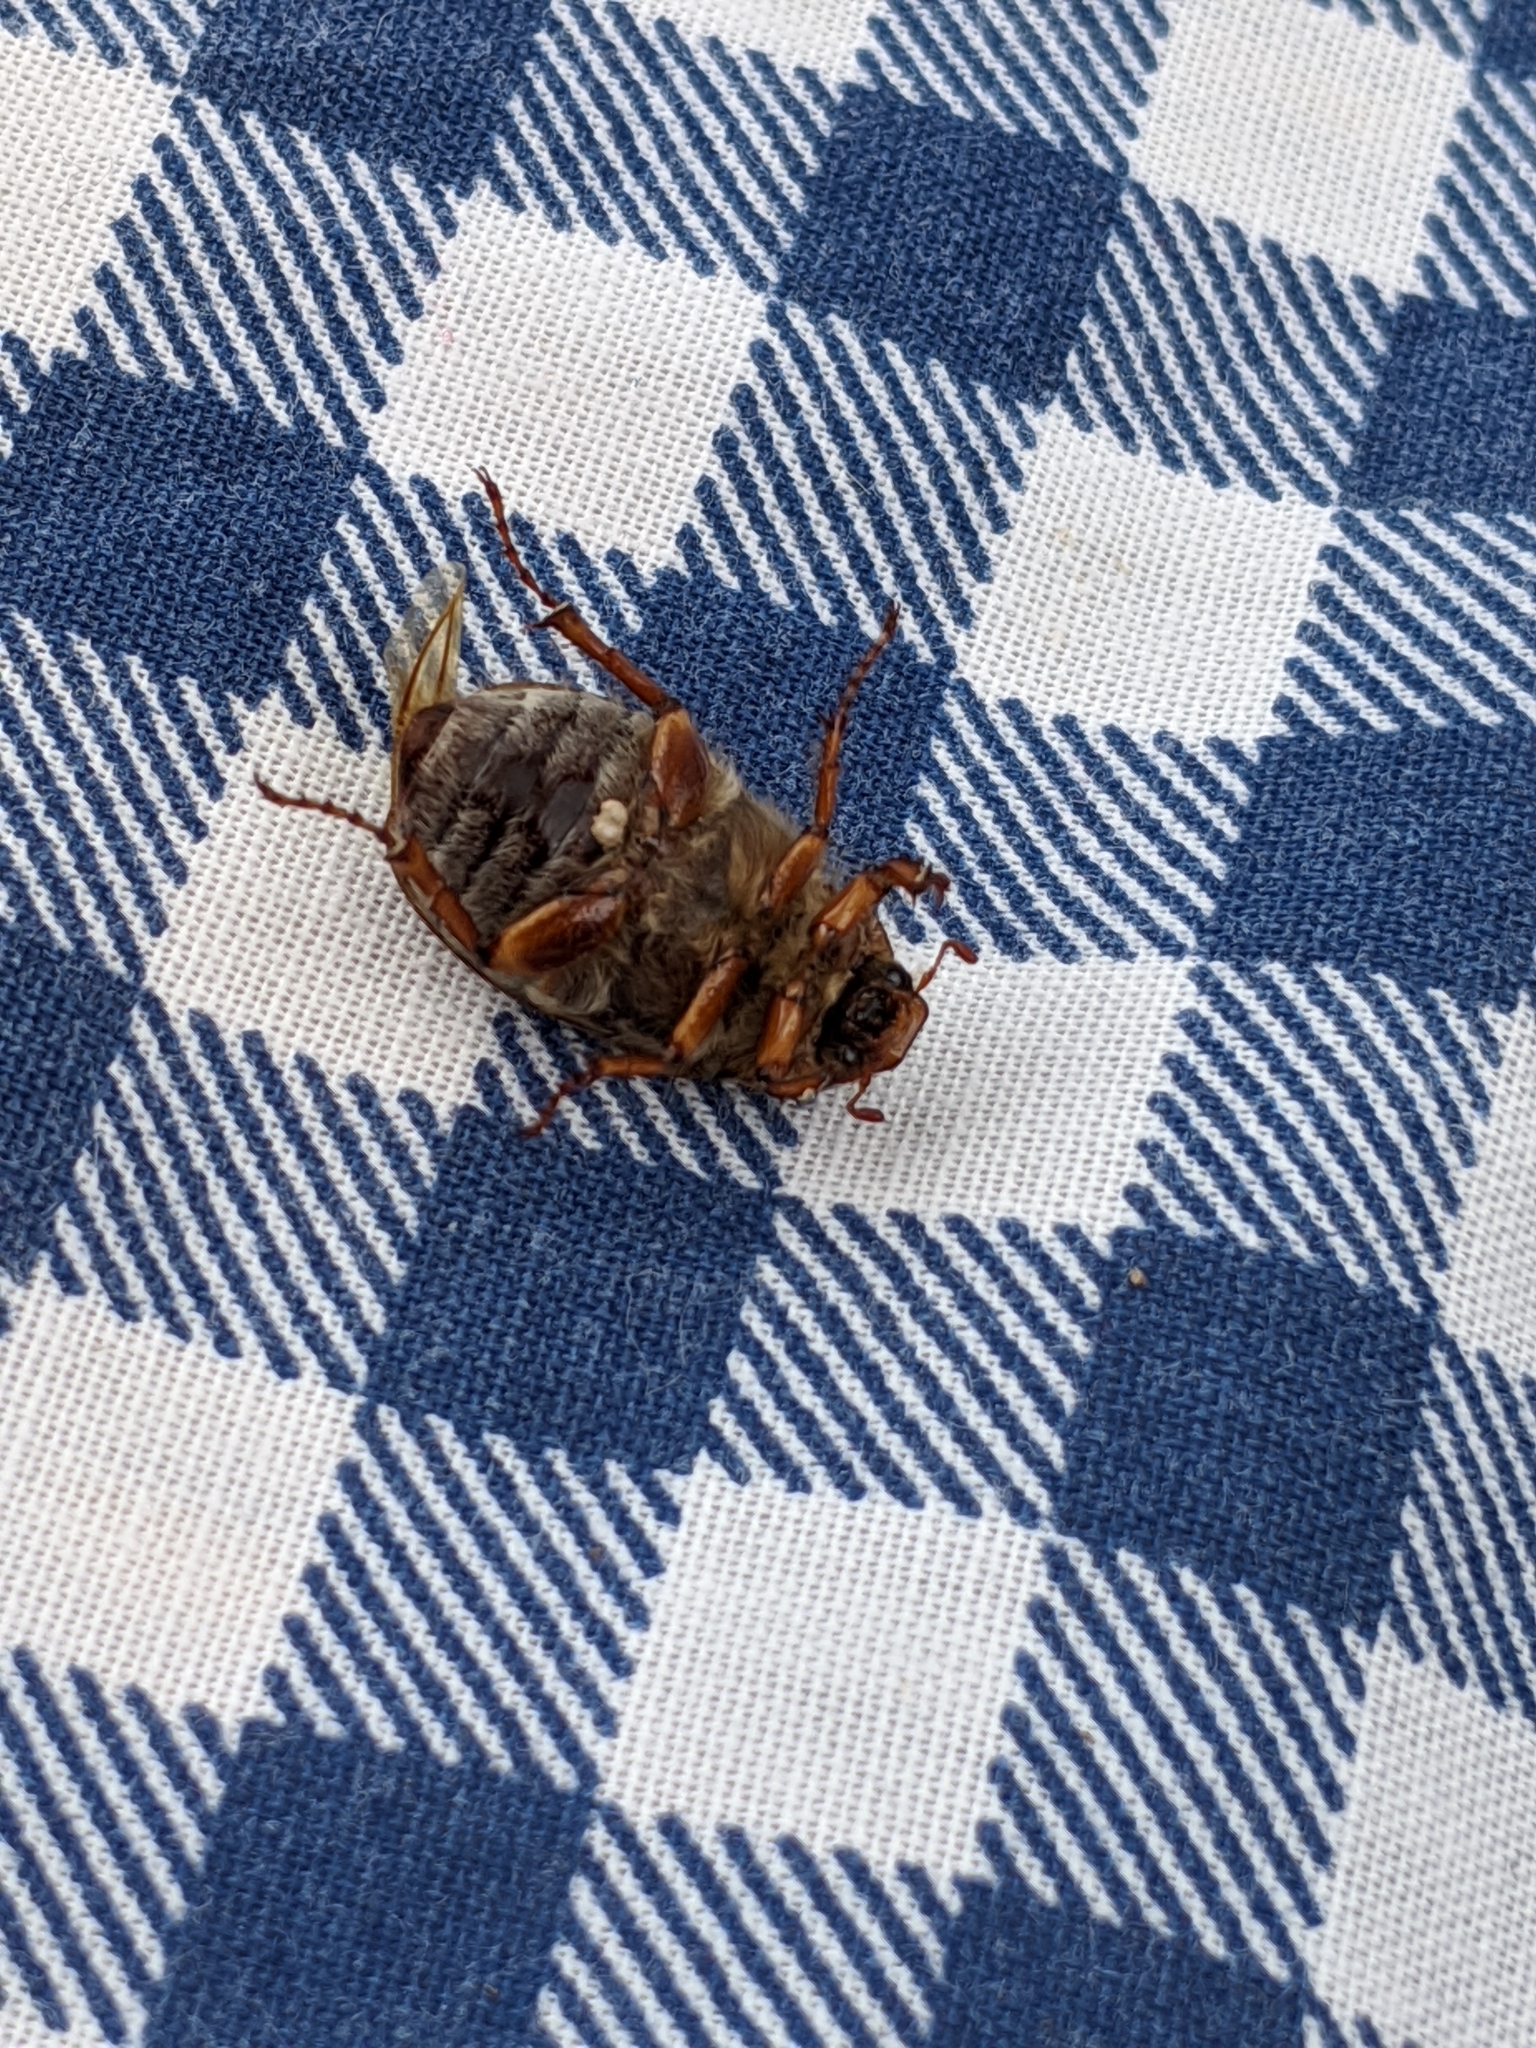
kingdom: Animalia
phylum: Arthropoda
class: Insecta
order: Coleoptera
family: Scarabaeidae
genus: Amphimallon
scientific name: Amphimallon solstitiale
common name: Summer chafer
